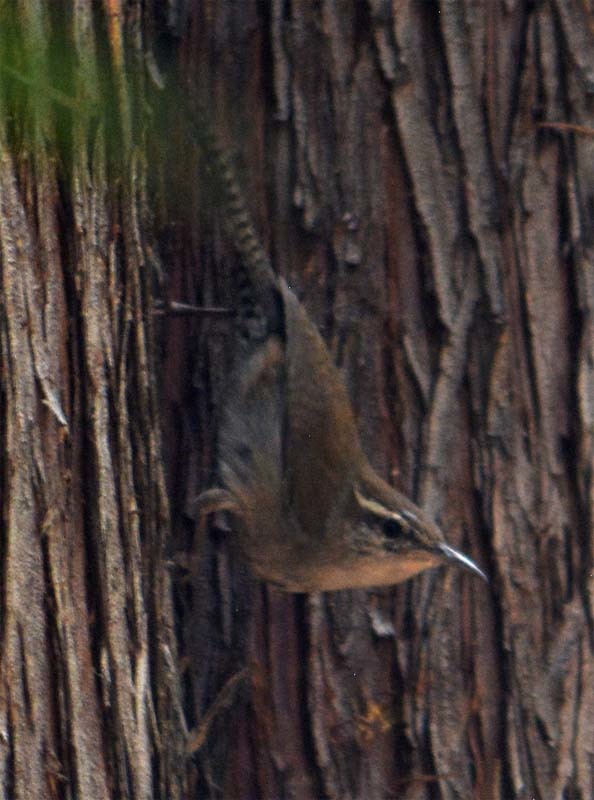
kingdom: Animalia
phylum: Chordata
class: Aves
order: Passeriformes
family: Troglodytidae
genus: Thryomanes
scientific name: Thryomanes bewickii
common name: Bewick's wren
